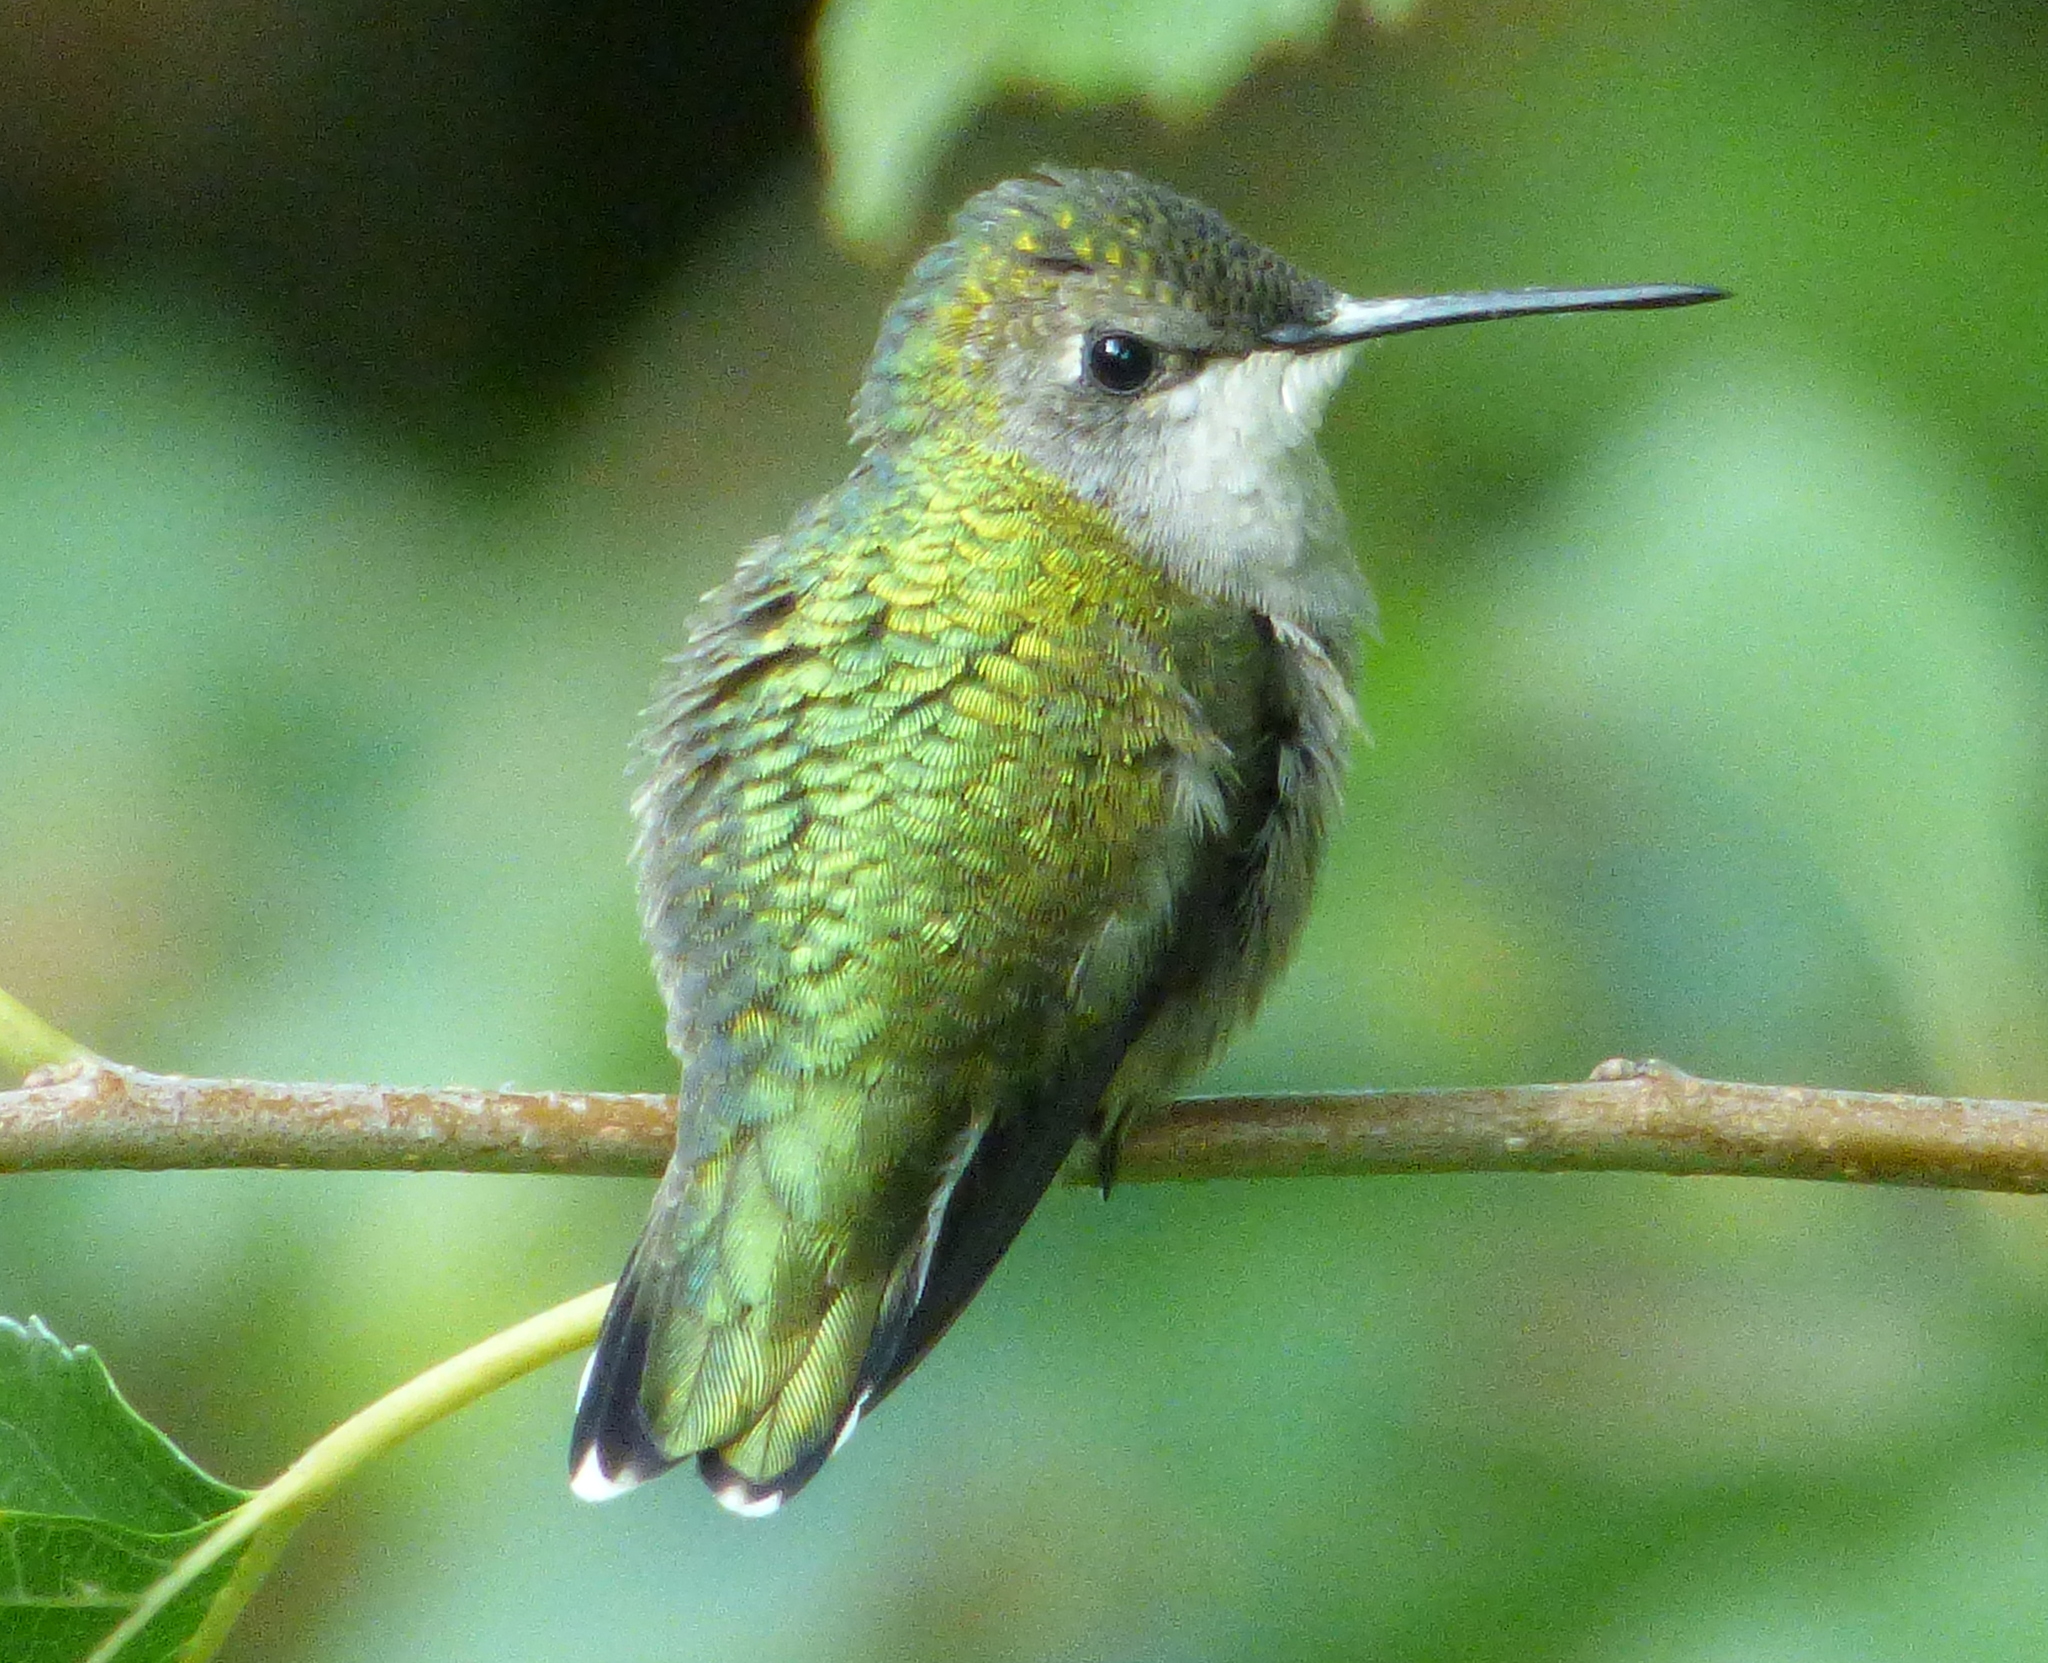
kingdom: Animalia
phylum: Chordata
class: Aves
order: Apodiformes
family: Trochilidae
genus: Archilochus
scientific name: Archilochus colubris
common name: Ruby-throated hummingbird
